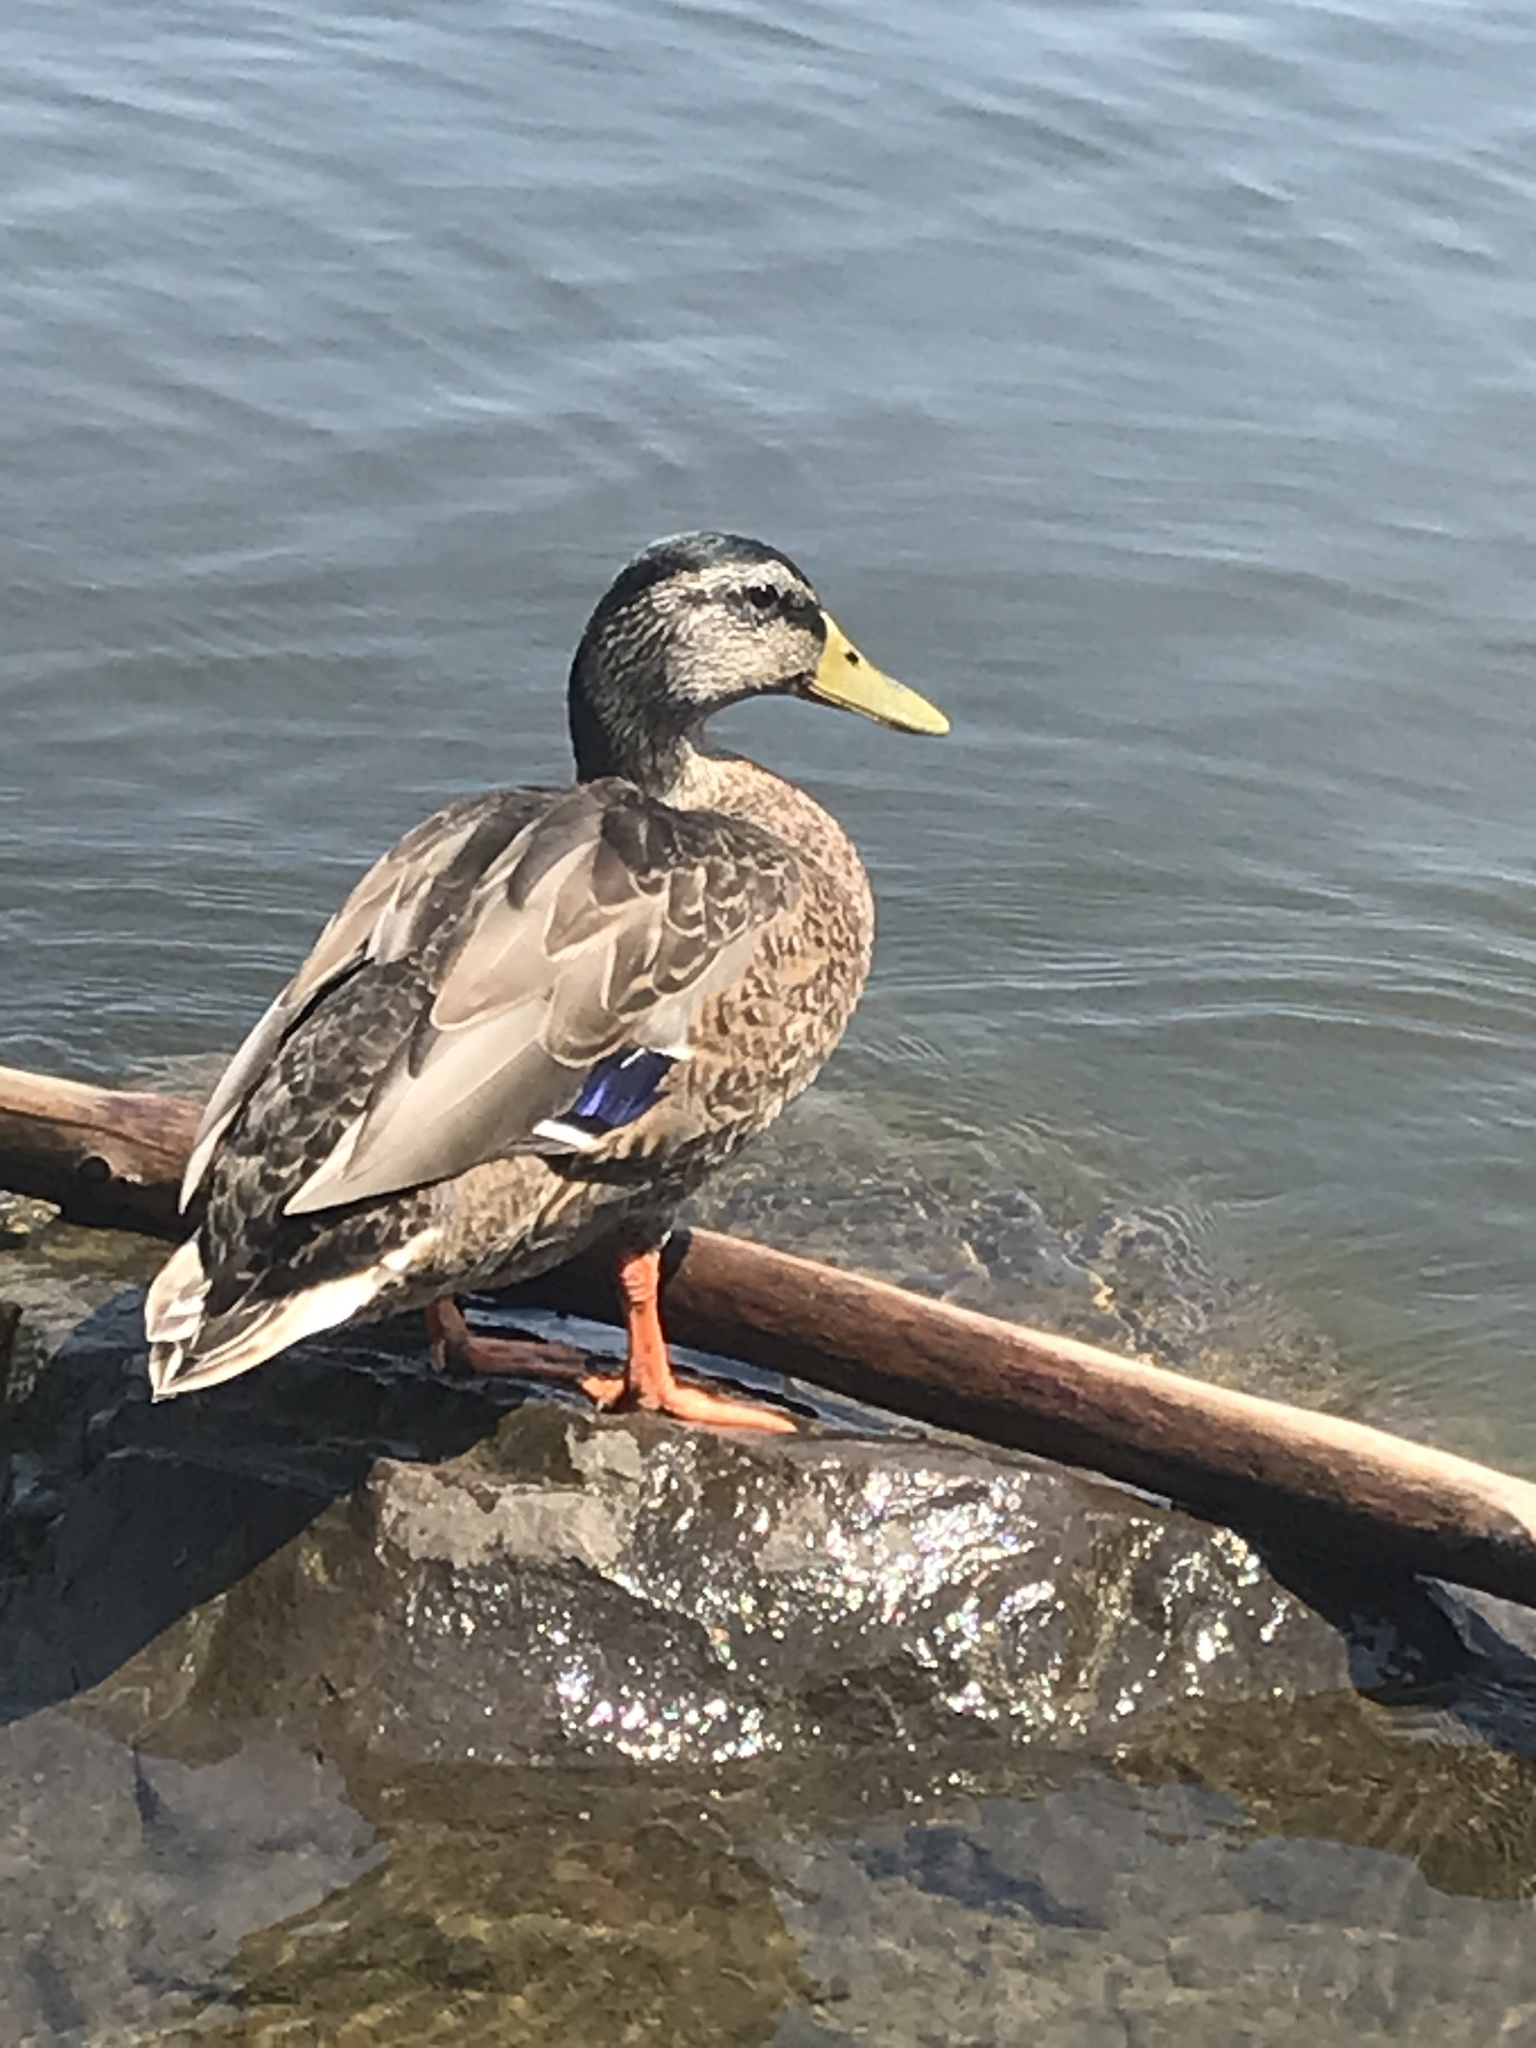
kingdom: Animalia
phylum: Chordata
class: Aves
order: Anseriformes
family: Anatidae
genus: Anas
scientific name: Anas platyrhynchos
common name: Mallard
